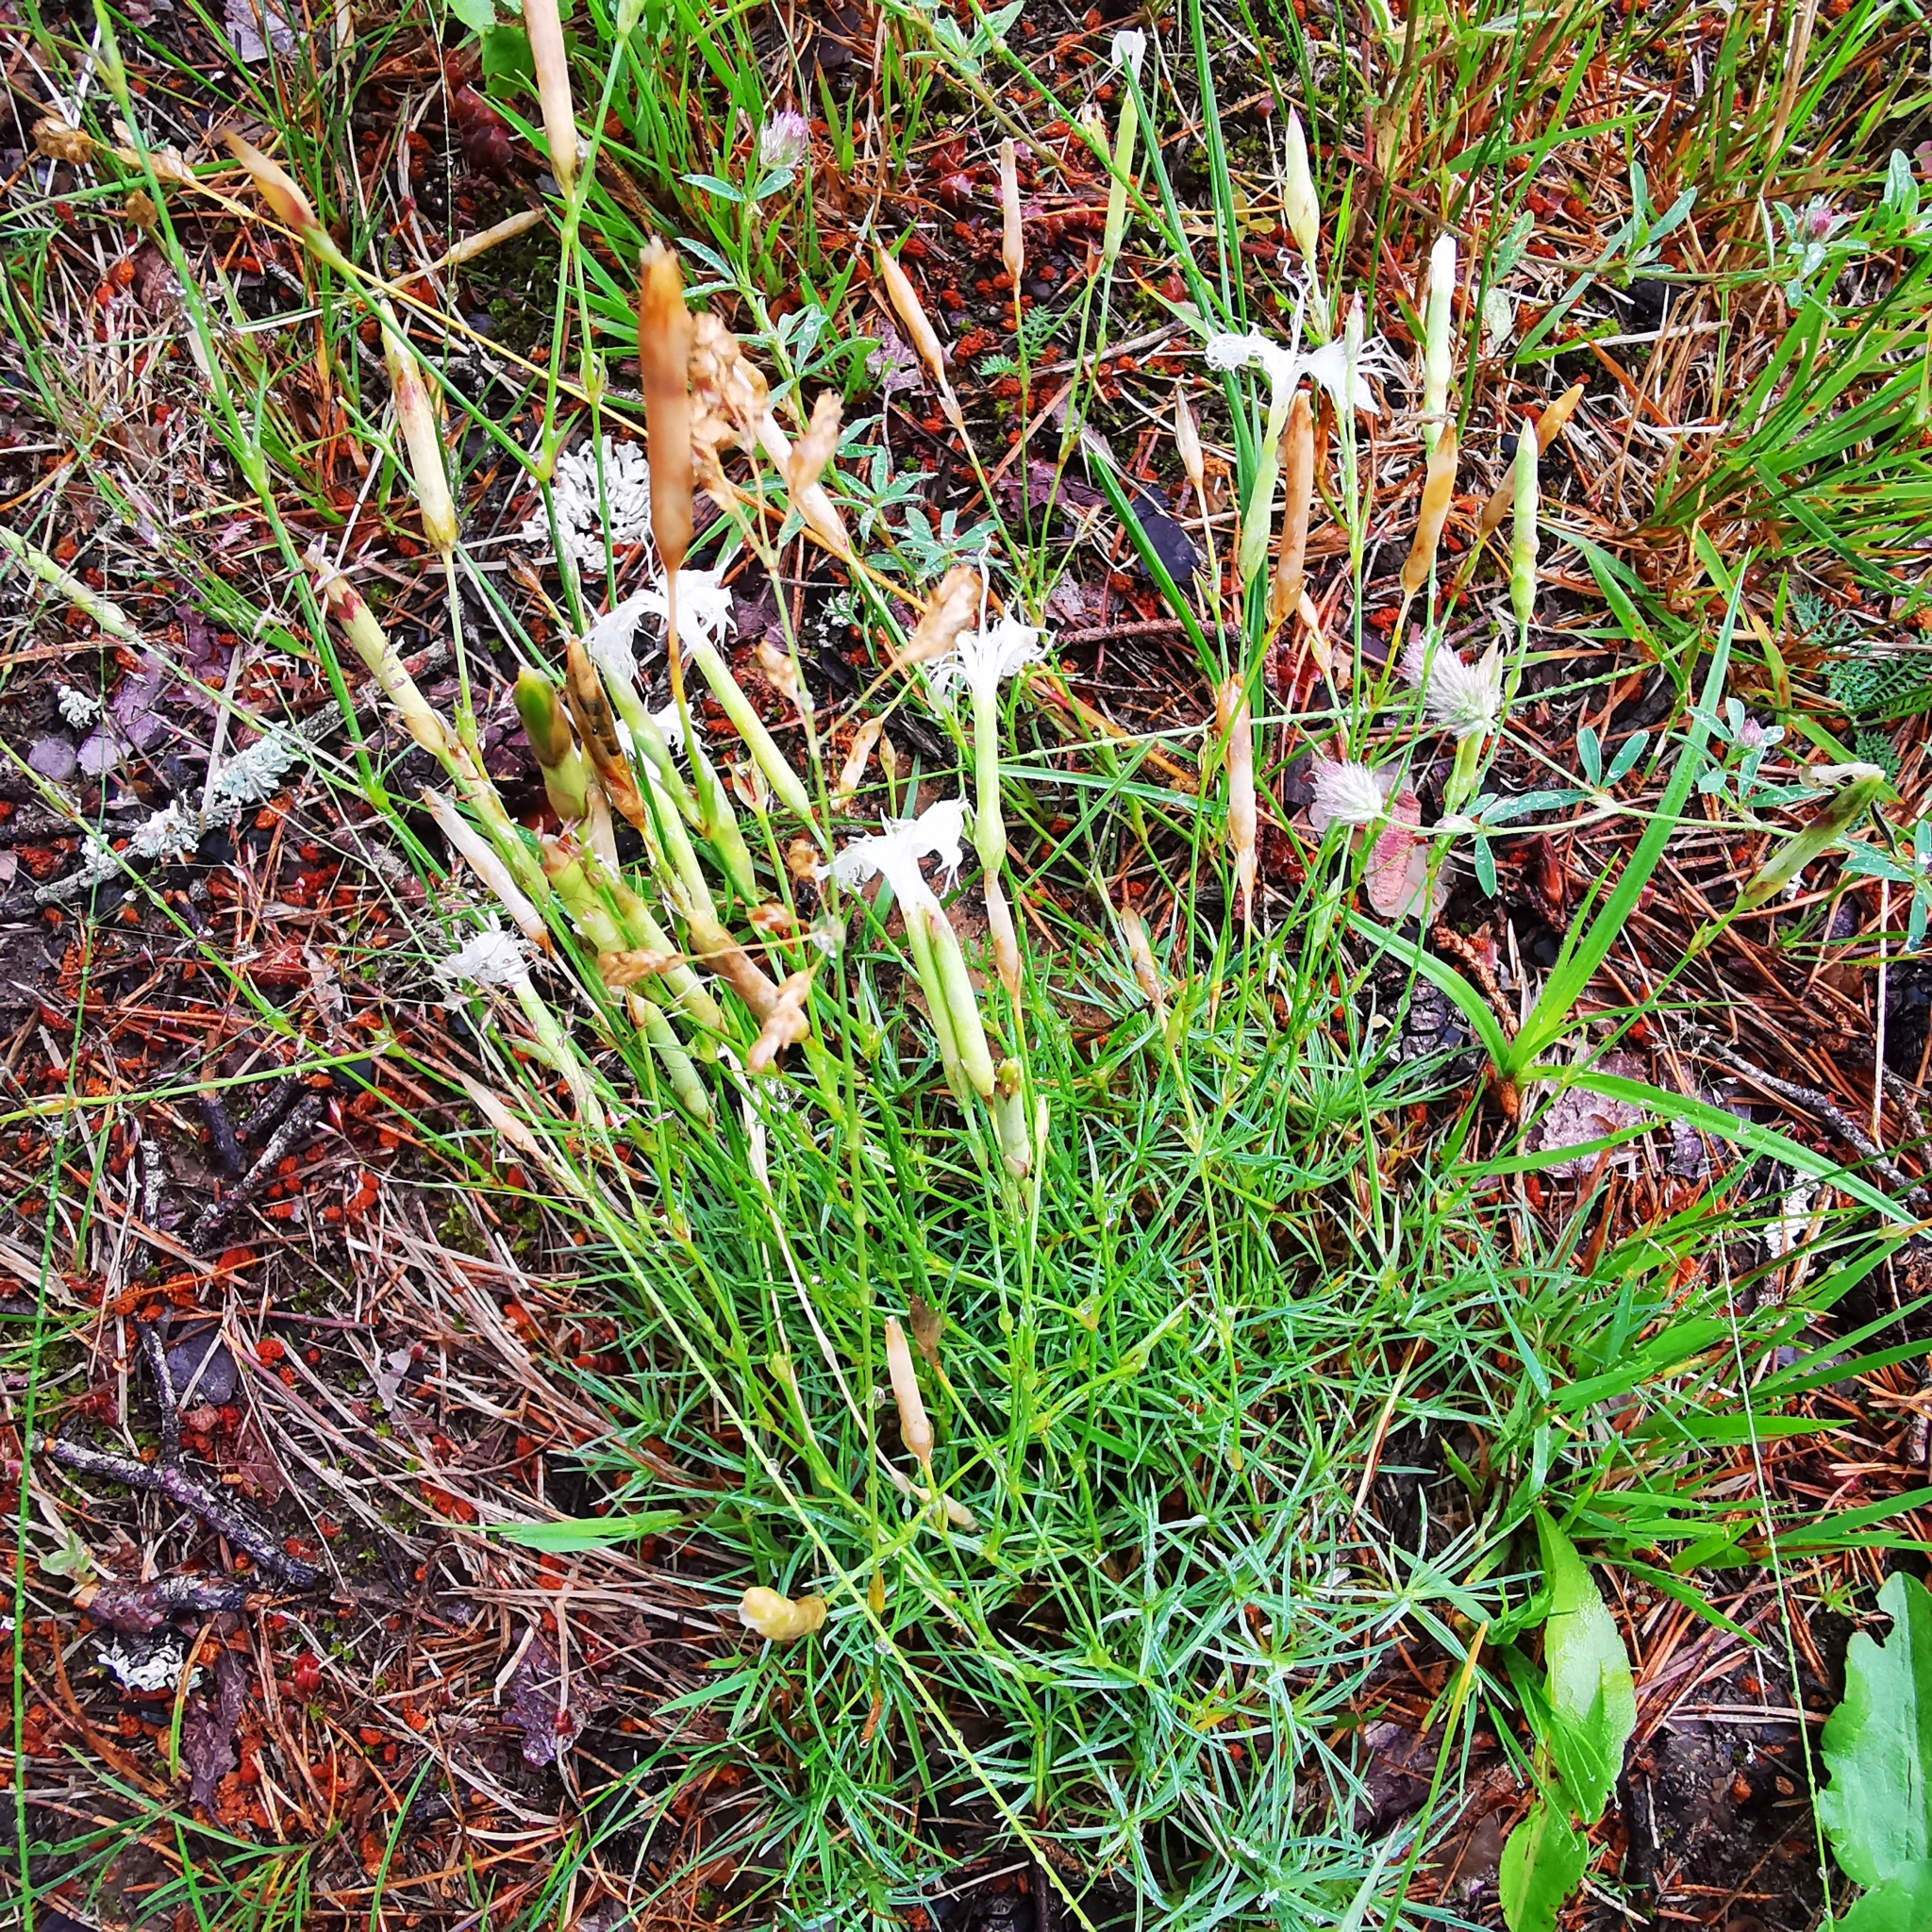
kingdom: Plantae
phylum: Tracheophyta
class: Magnoliopsida
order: Caryophyllales
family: Caryophyllaceae
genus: Dianthus
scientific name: Dianthus arenarius
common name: Stone pink
